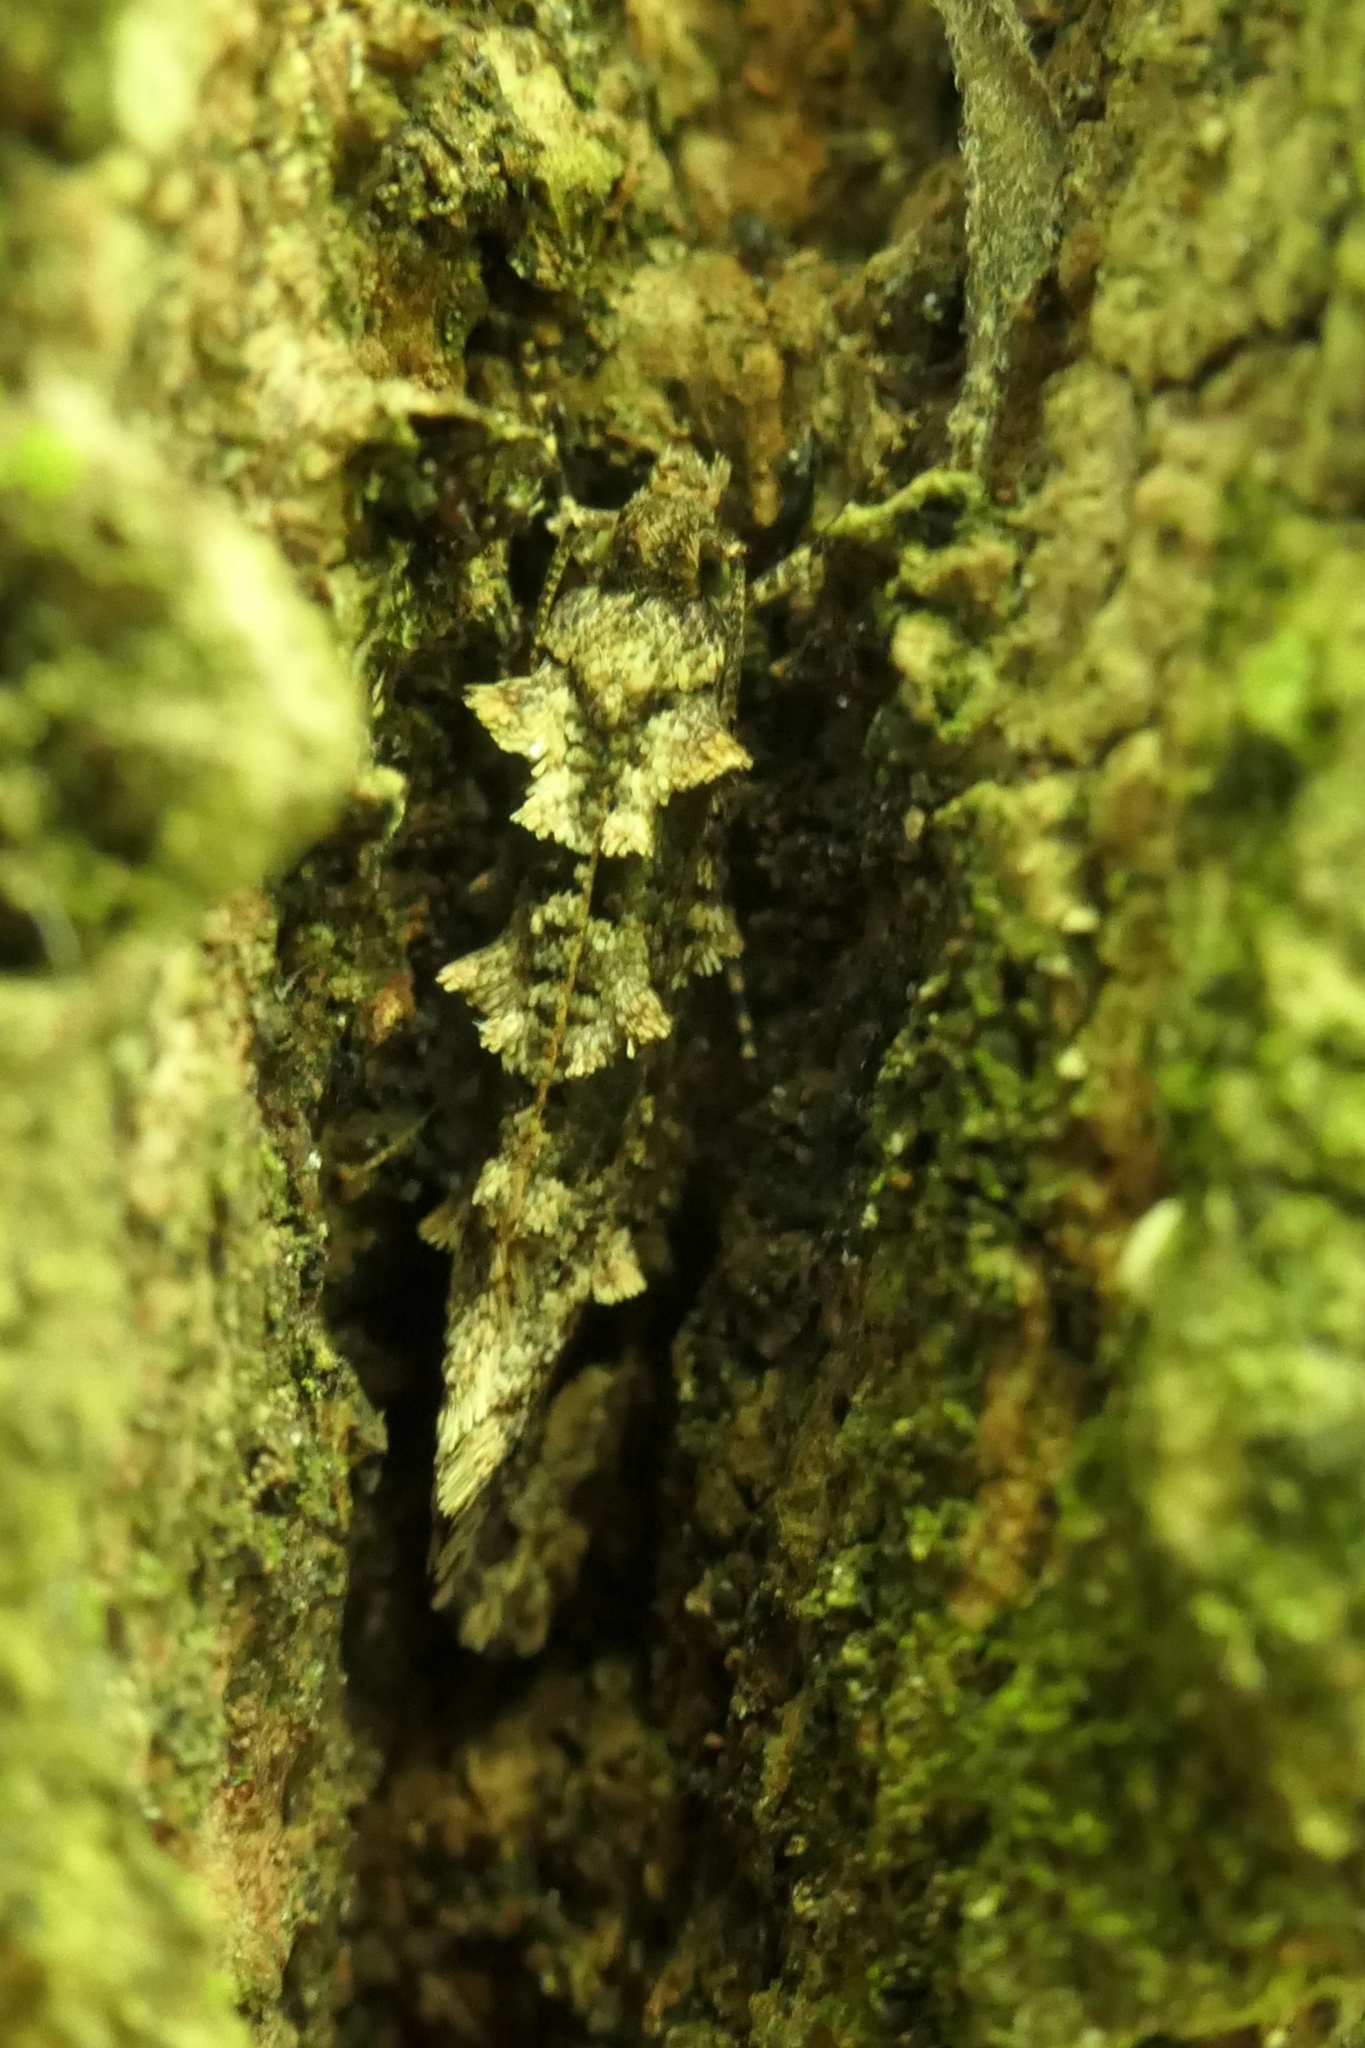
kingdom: Animalia
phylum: Arthropoda
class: Insecta
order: Lepidoptera
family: Tineidae
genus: Lysiphragma
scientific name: Lysiphragma howesii
